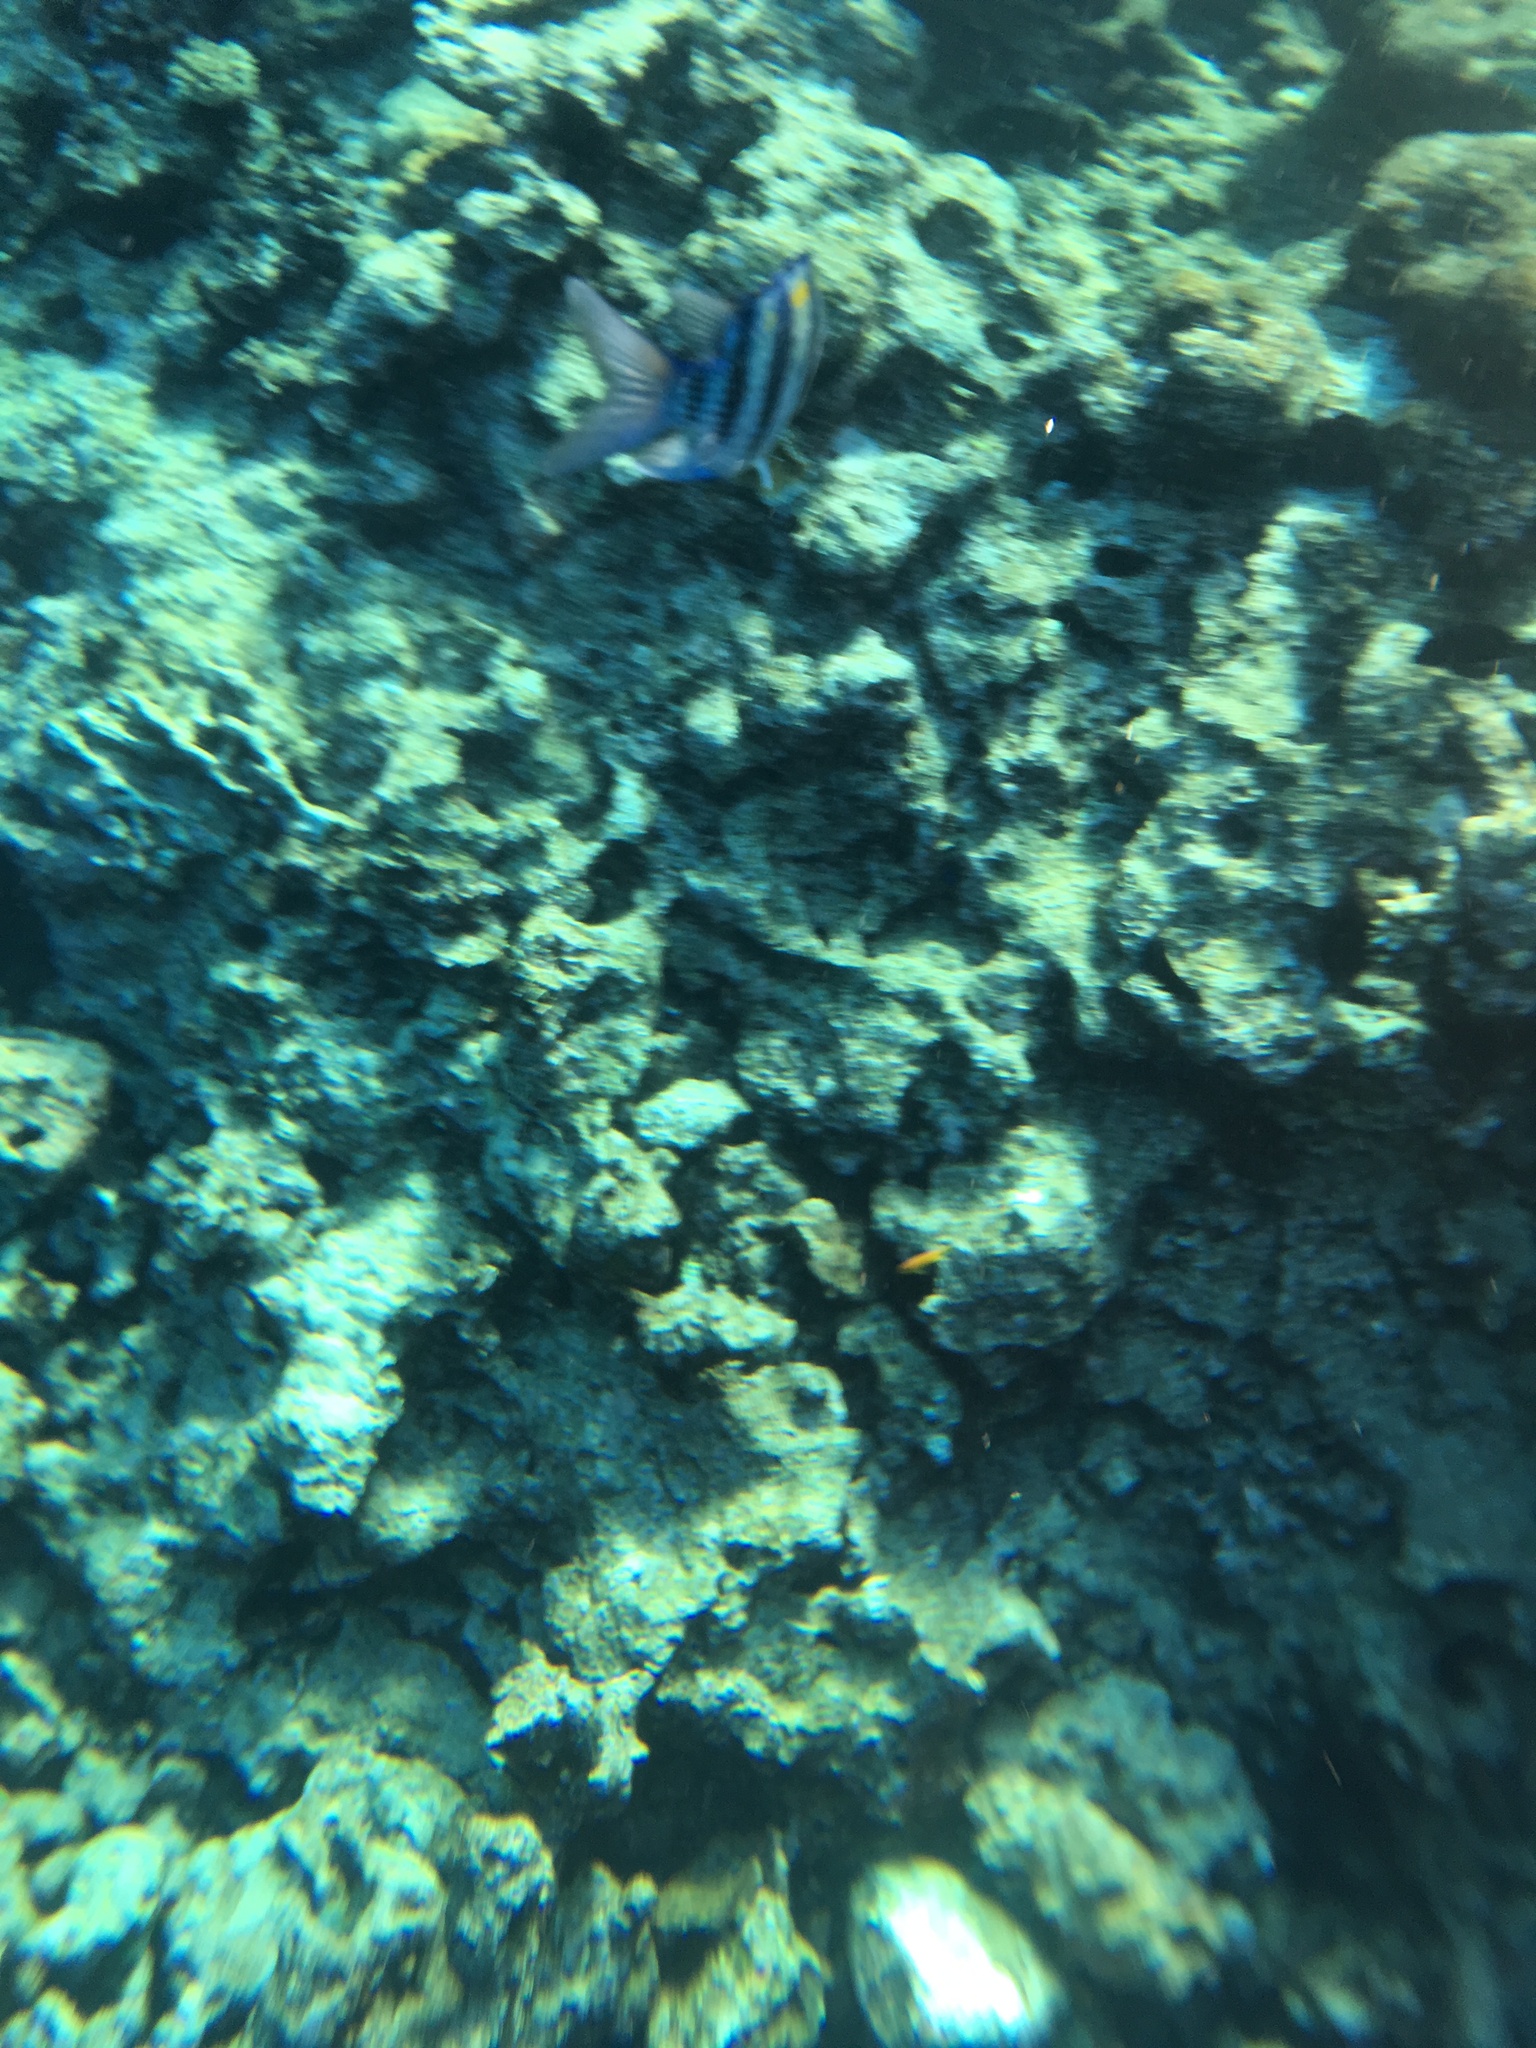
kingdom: Animalia
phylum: Chordata
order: Perciformes
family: Pomacentridae
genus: Abudefduf
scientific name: Abudefduf vaigiensis
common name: Indo-pacific sergeant
